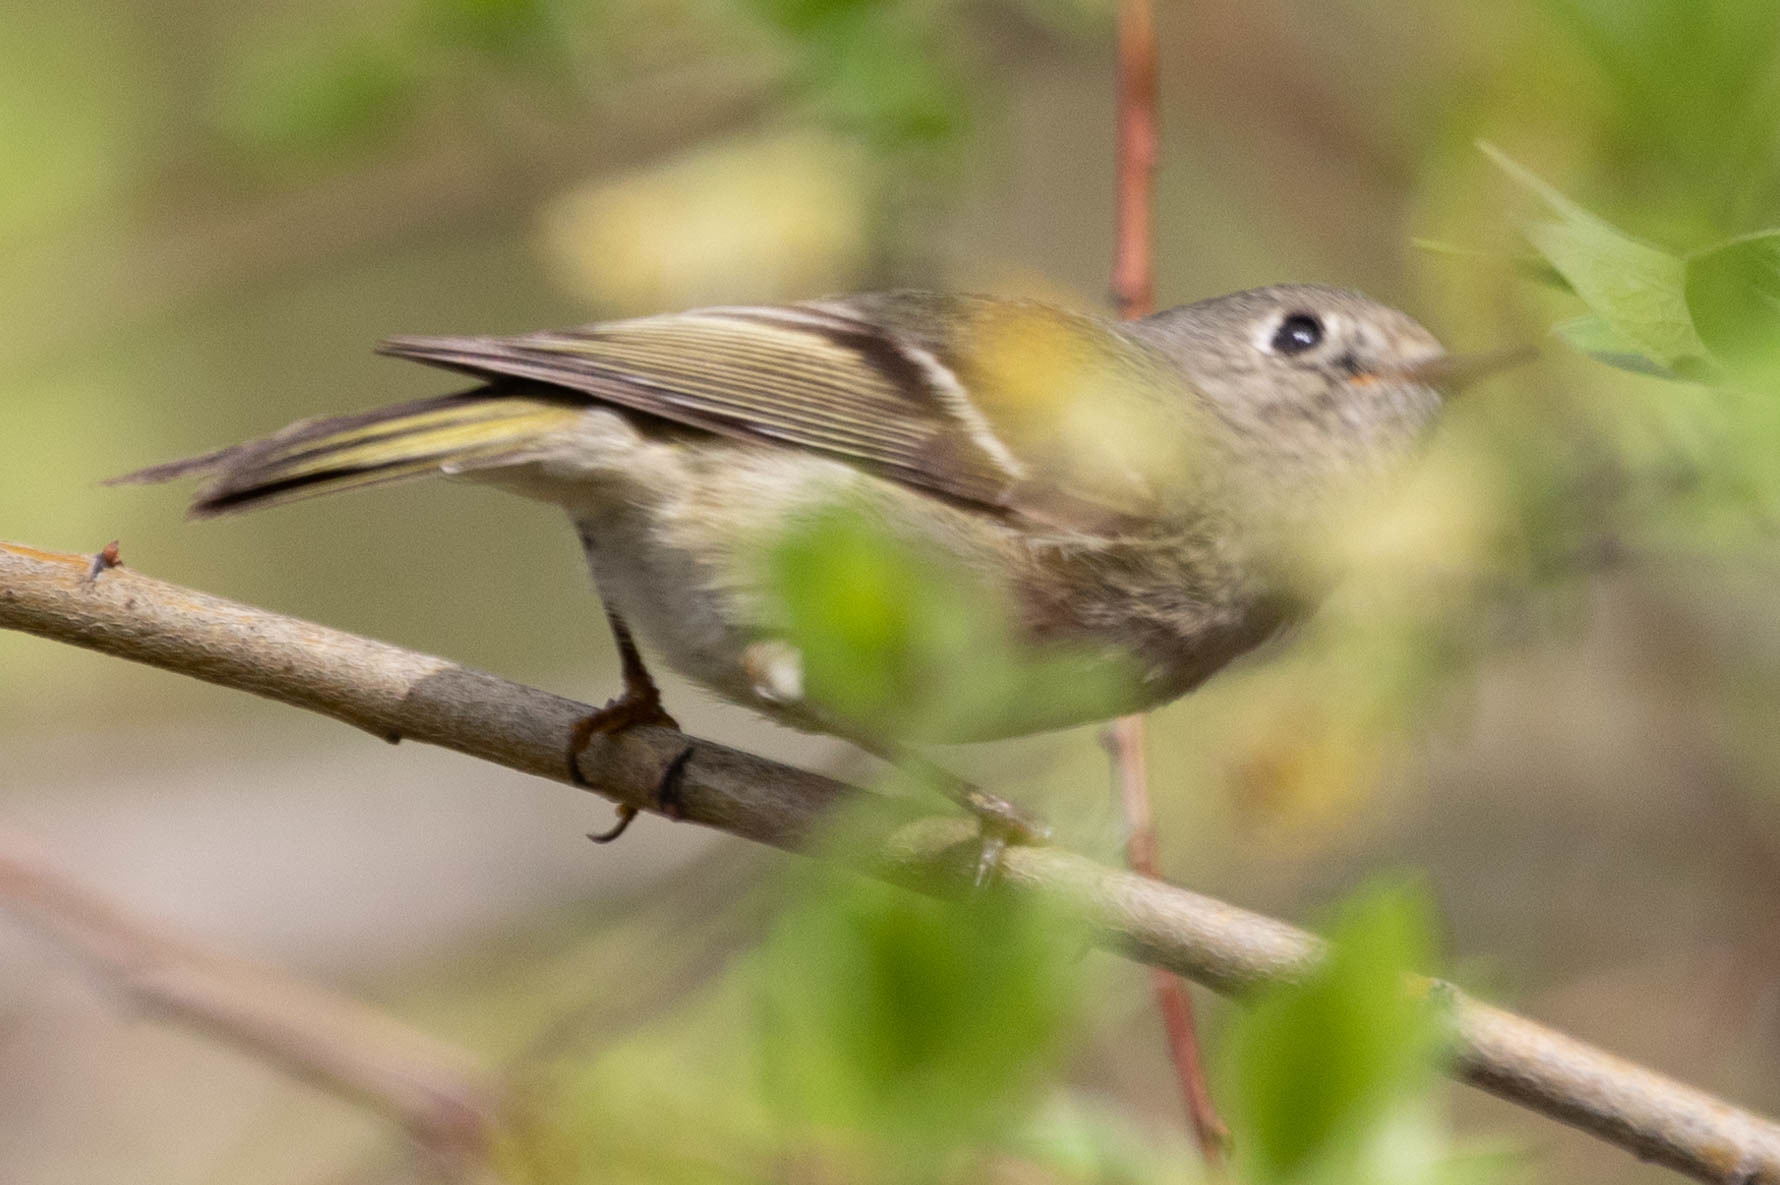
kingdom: Animalia
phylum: Chordata
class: Aves
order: Passeriformes
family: Regulidae
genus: Regulus
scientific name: Regulus calendula
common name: Ruby-crowned kinglet
